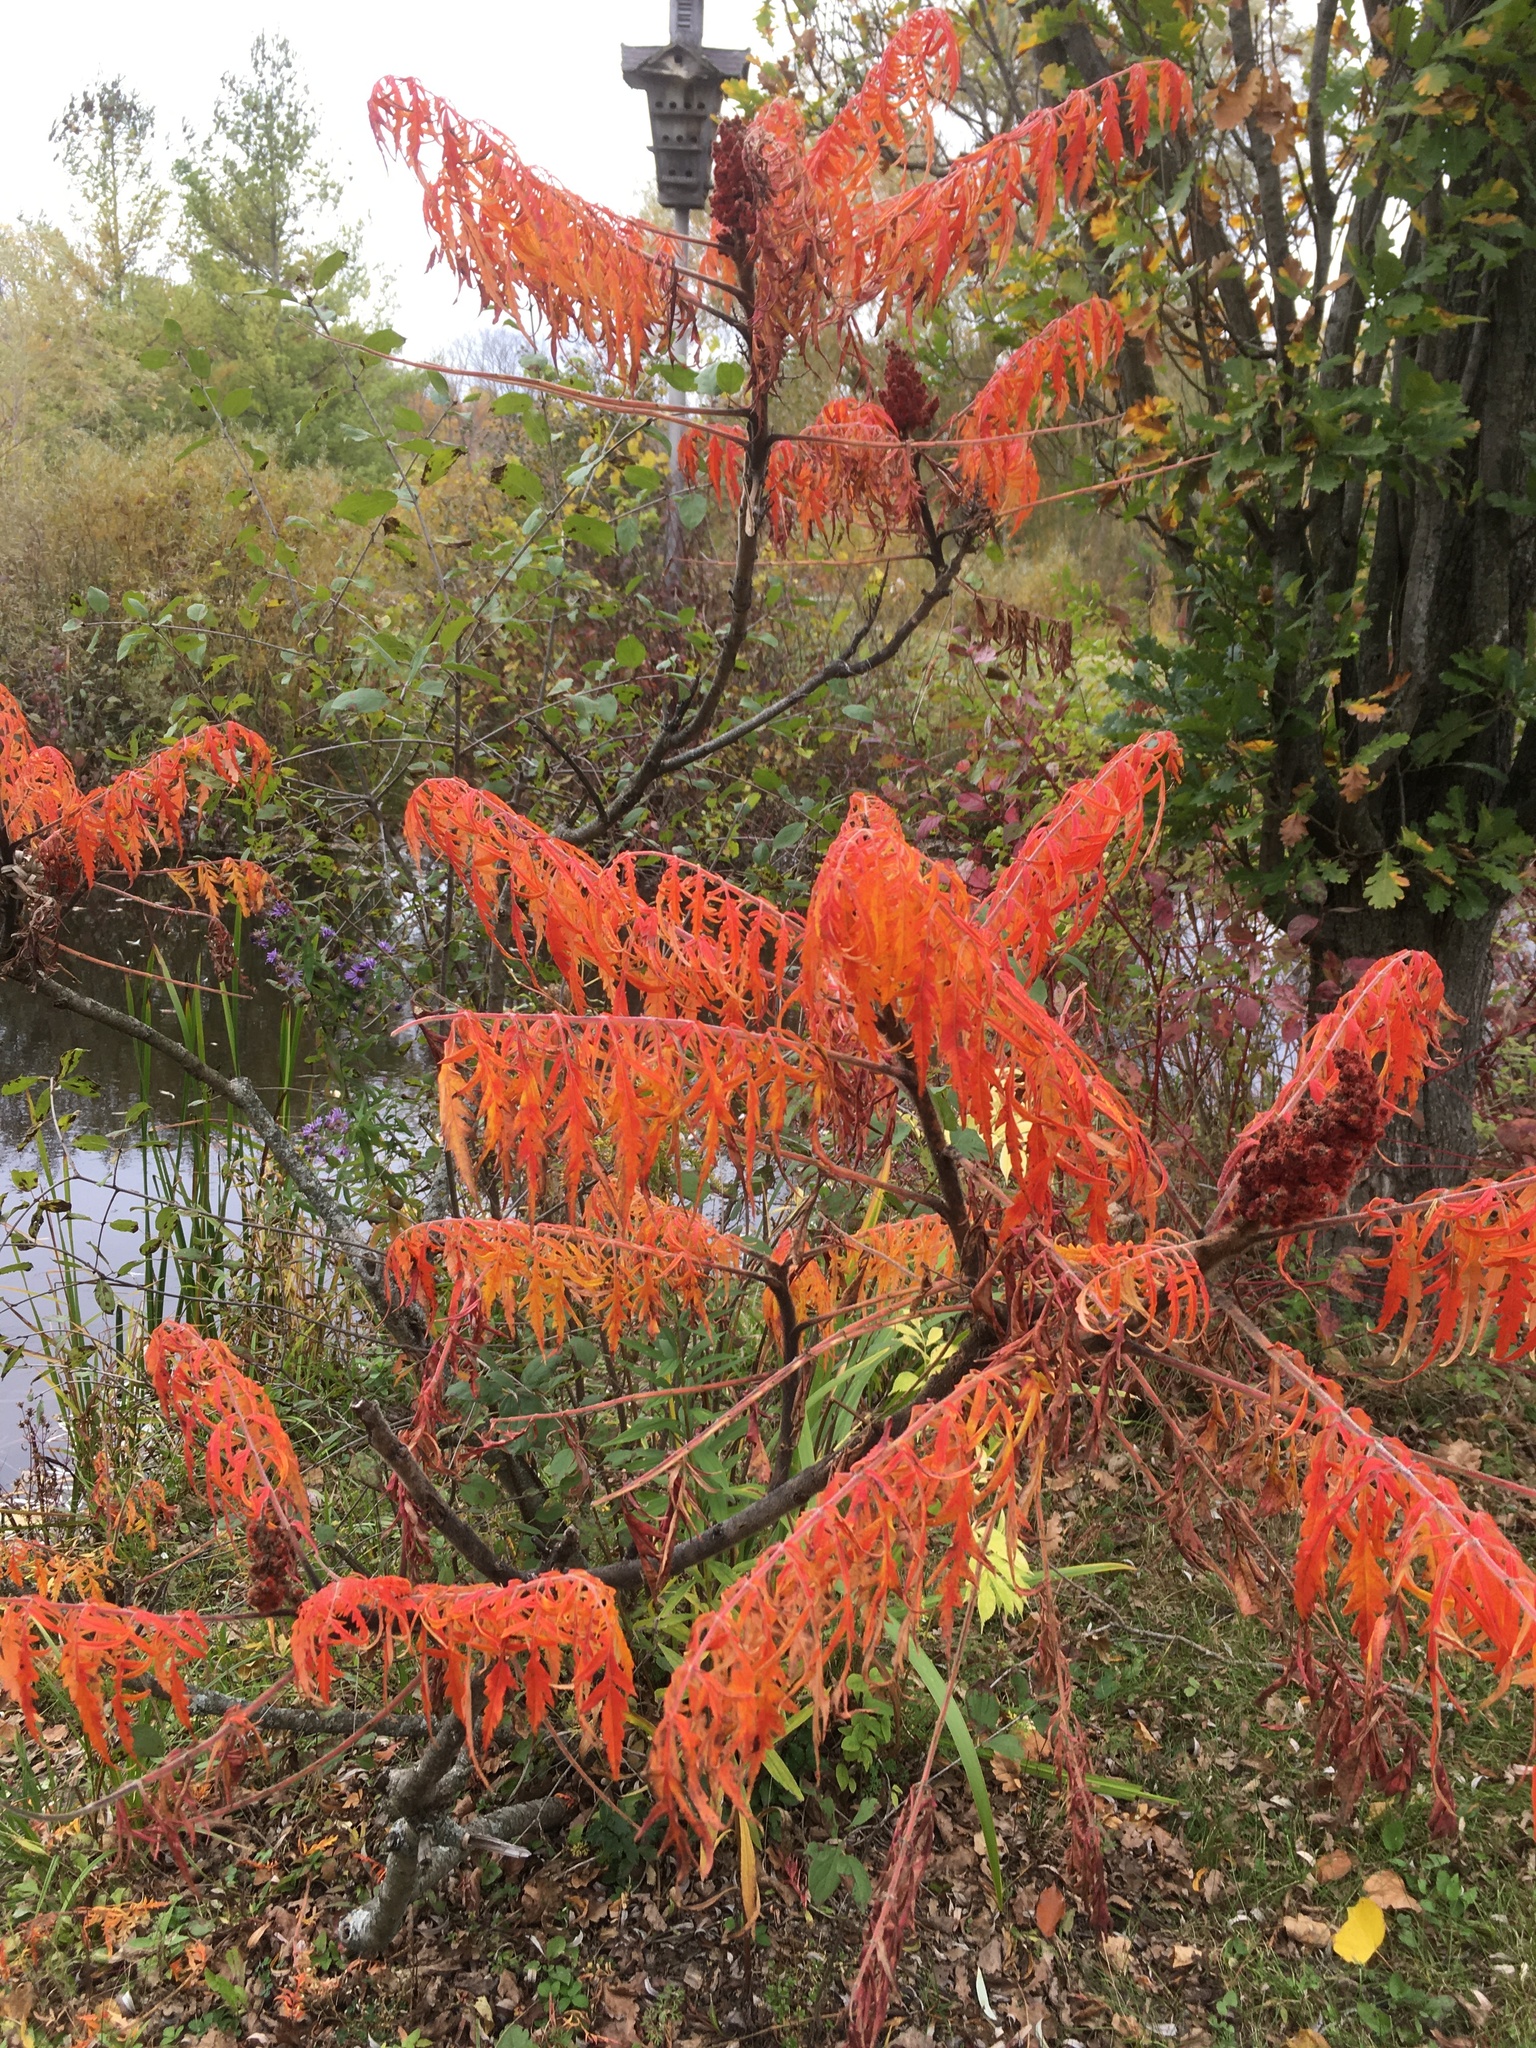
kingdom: Plantae
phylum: Tracheophyta
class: Magnoliopsida
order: Sapindales
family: Anacardiaceae
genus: Rhus
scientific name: Rhus typhina
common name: Staghorn sumac
